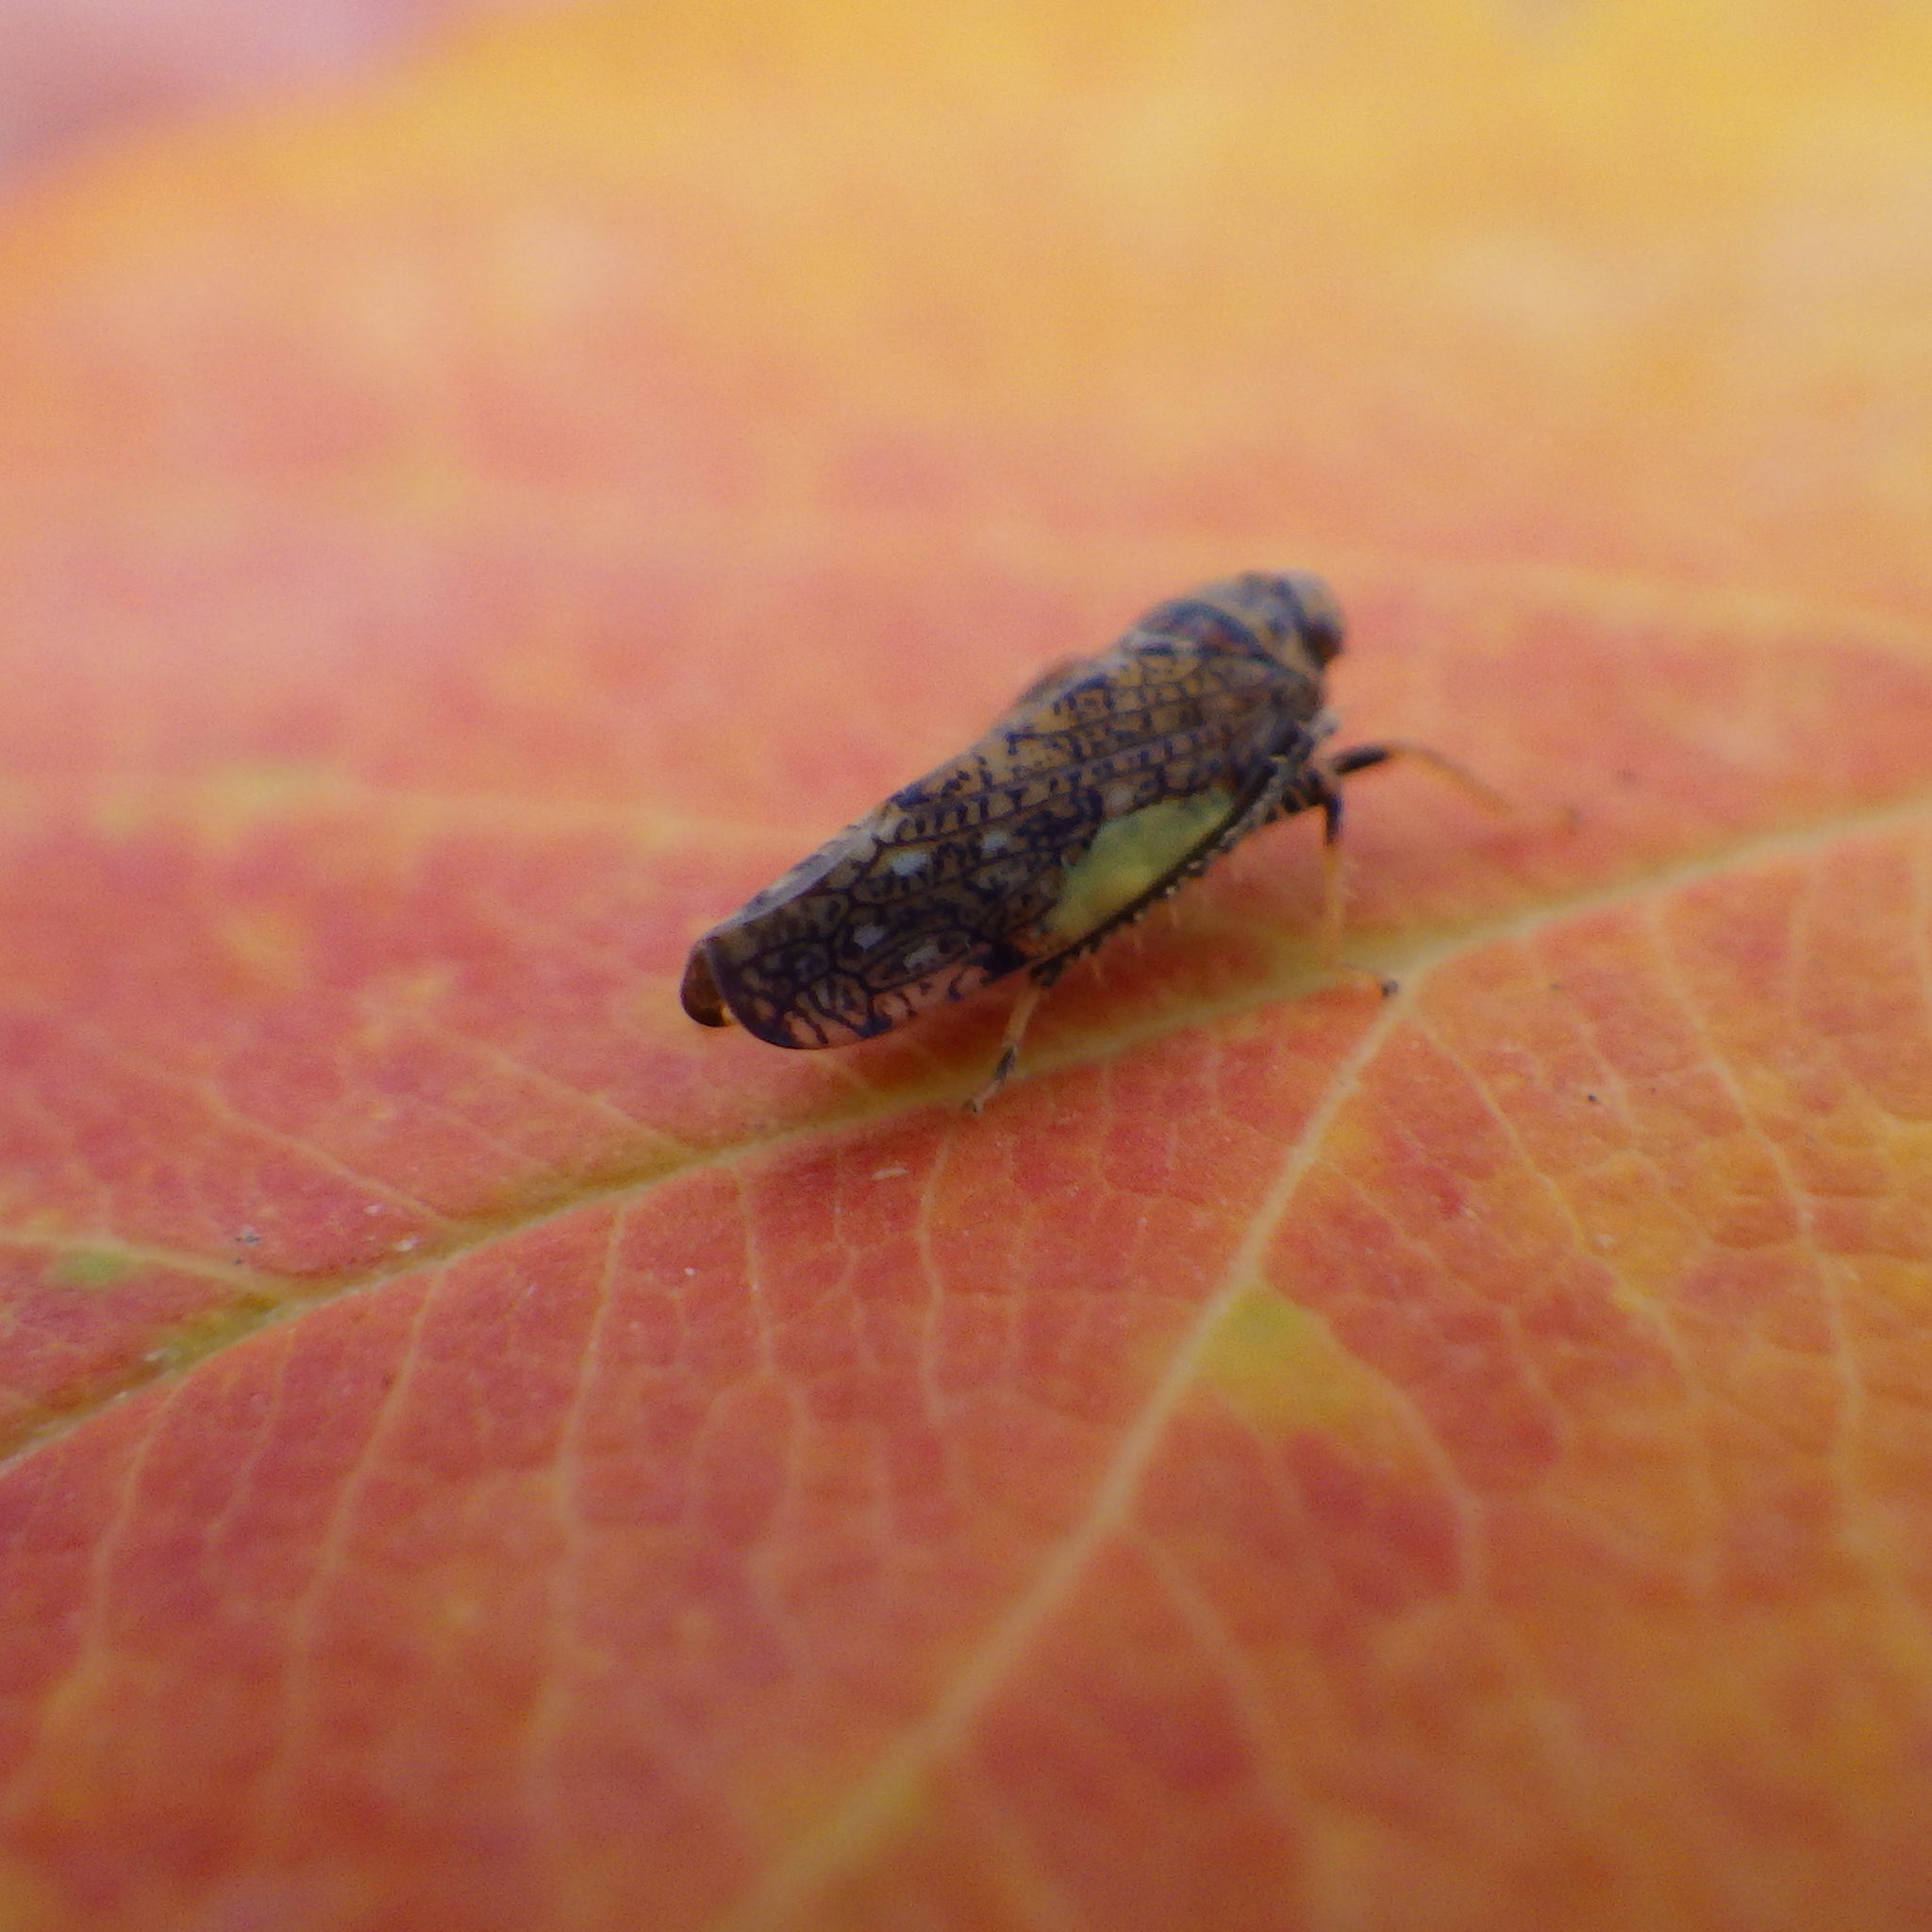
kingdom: Animalia
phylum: Arthropoda
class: Insecta
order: Hemiptera
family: Cicadellidae
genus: Orientus
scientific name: Orientus ishidae
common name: Japanese leafhopper
